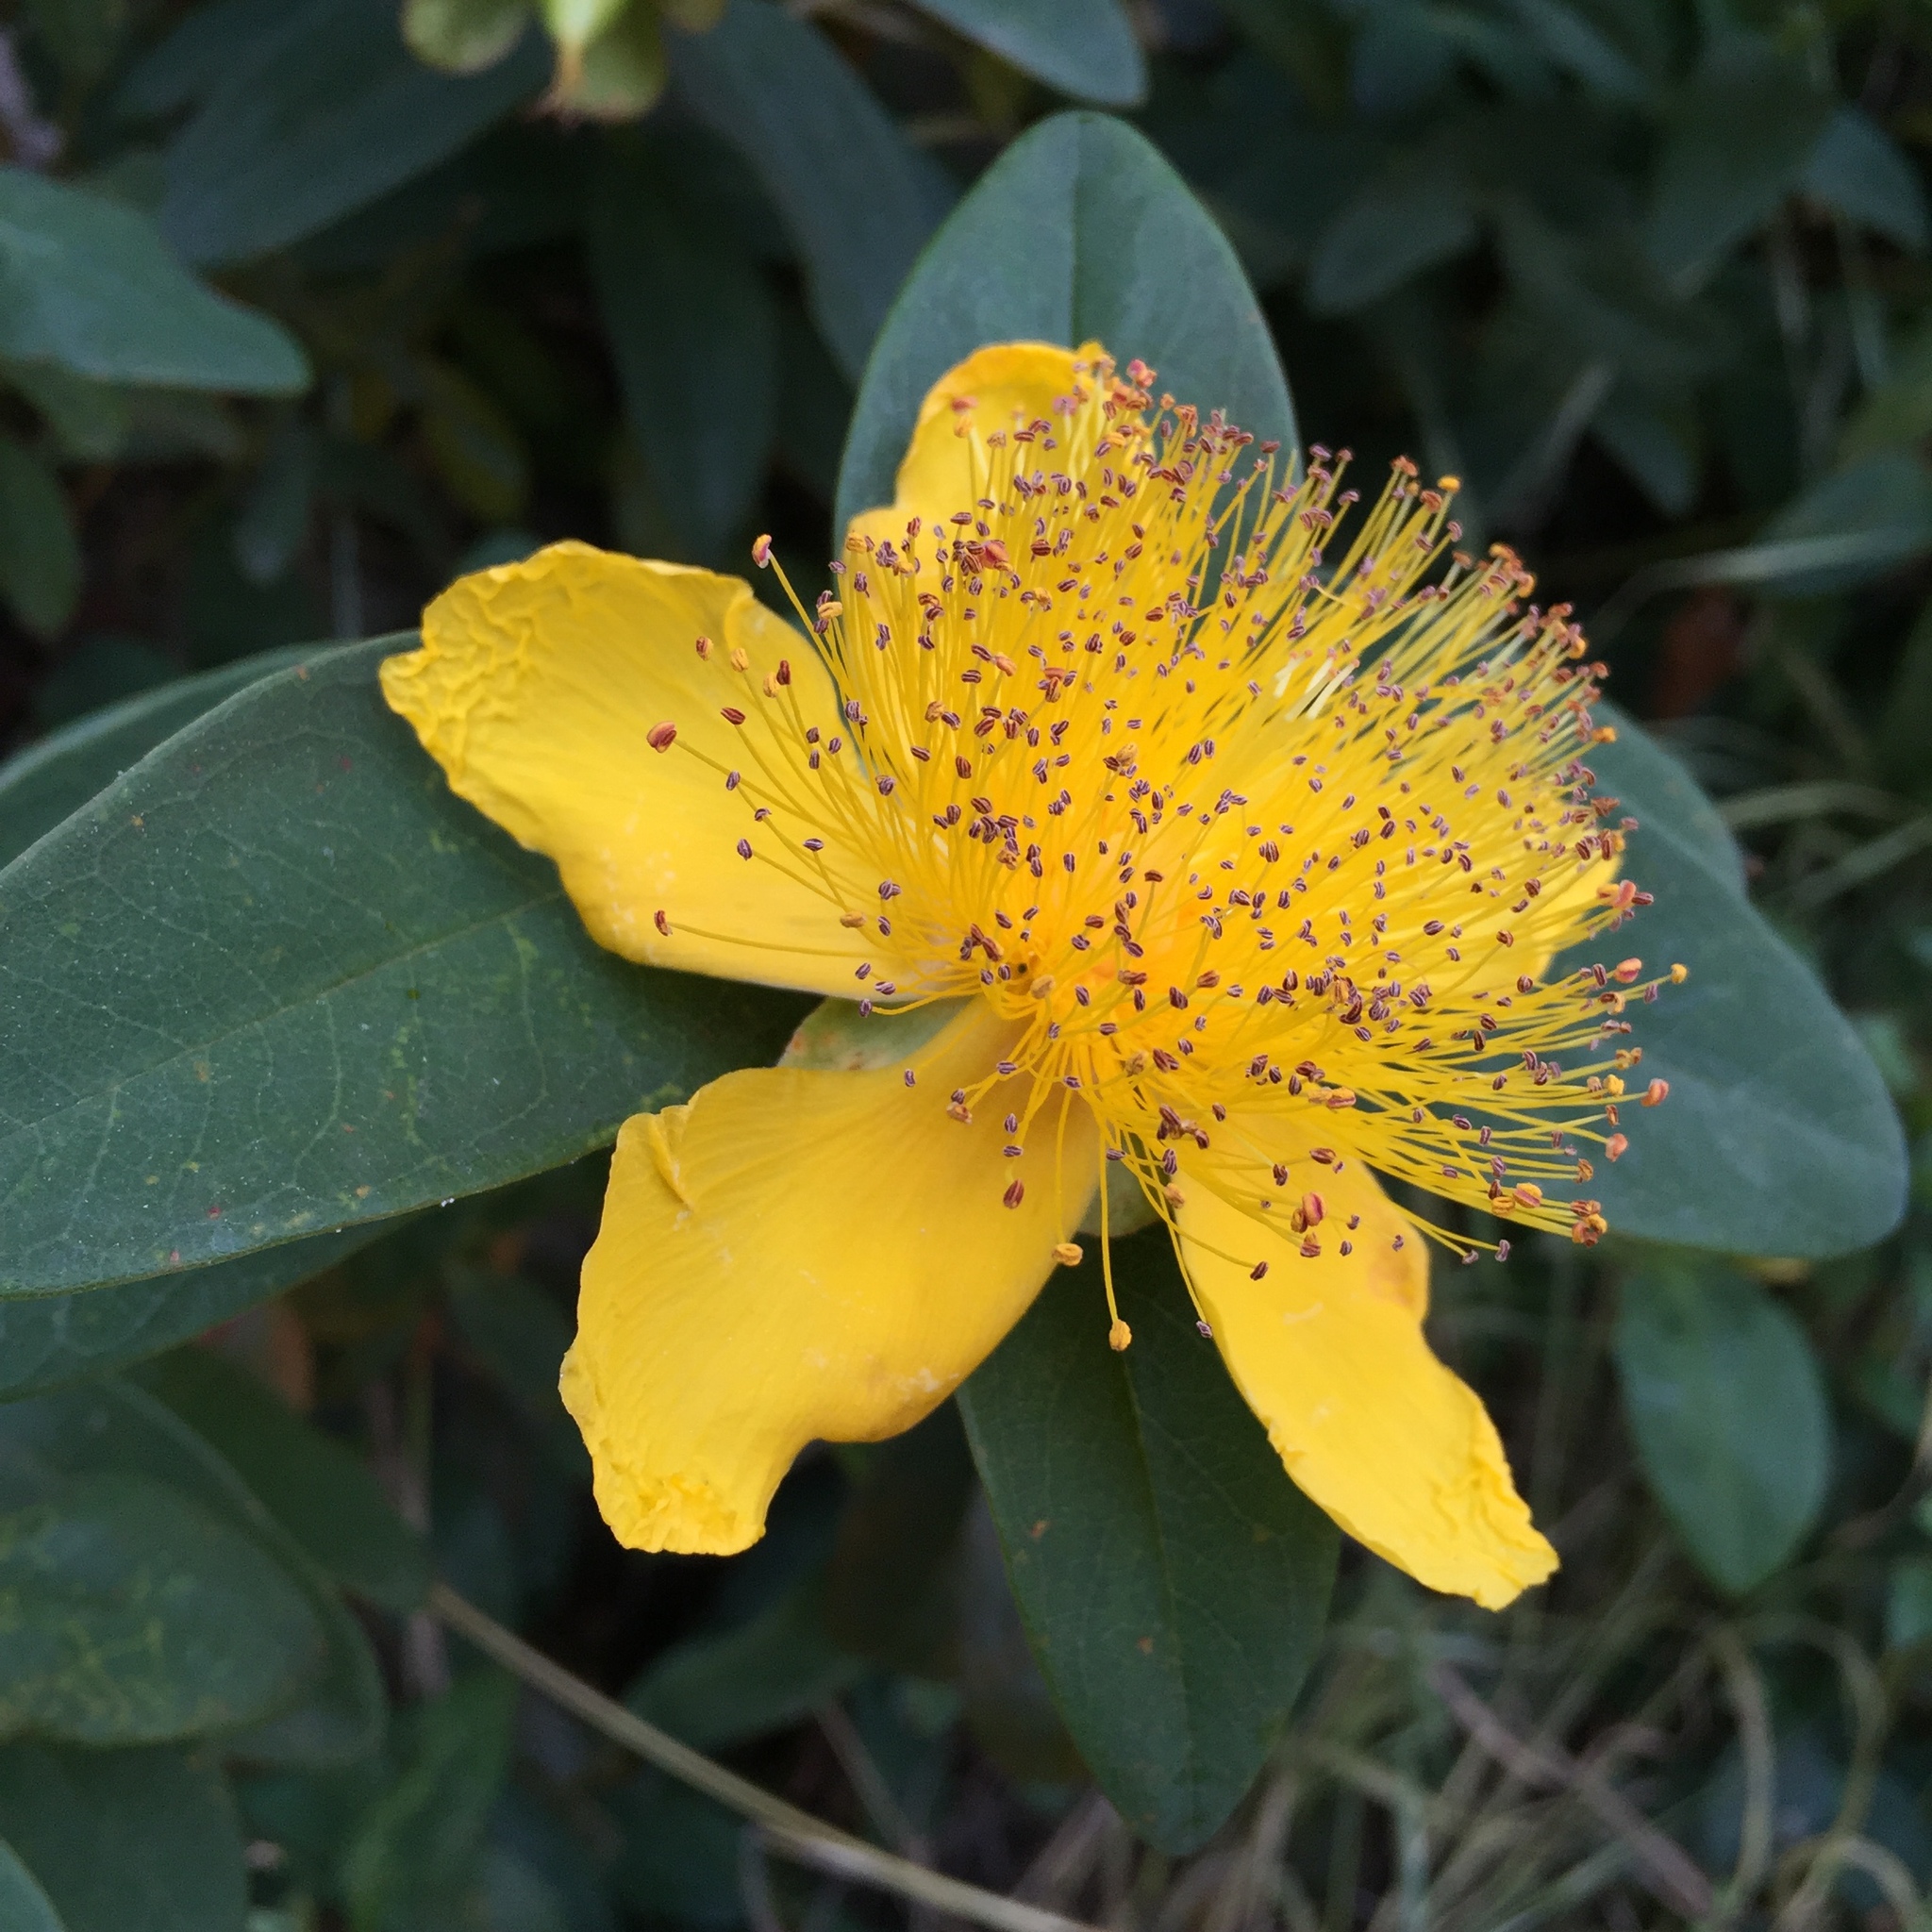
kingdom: Plantae
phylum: Tracheophyta
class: Magnoliopsida
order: Malpighiales
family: Hypericaceae
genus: Hypericum
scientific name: Hypericum calycinum
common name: Rose-of-sharon
